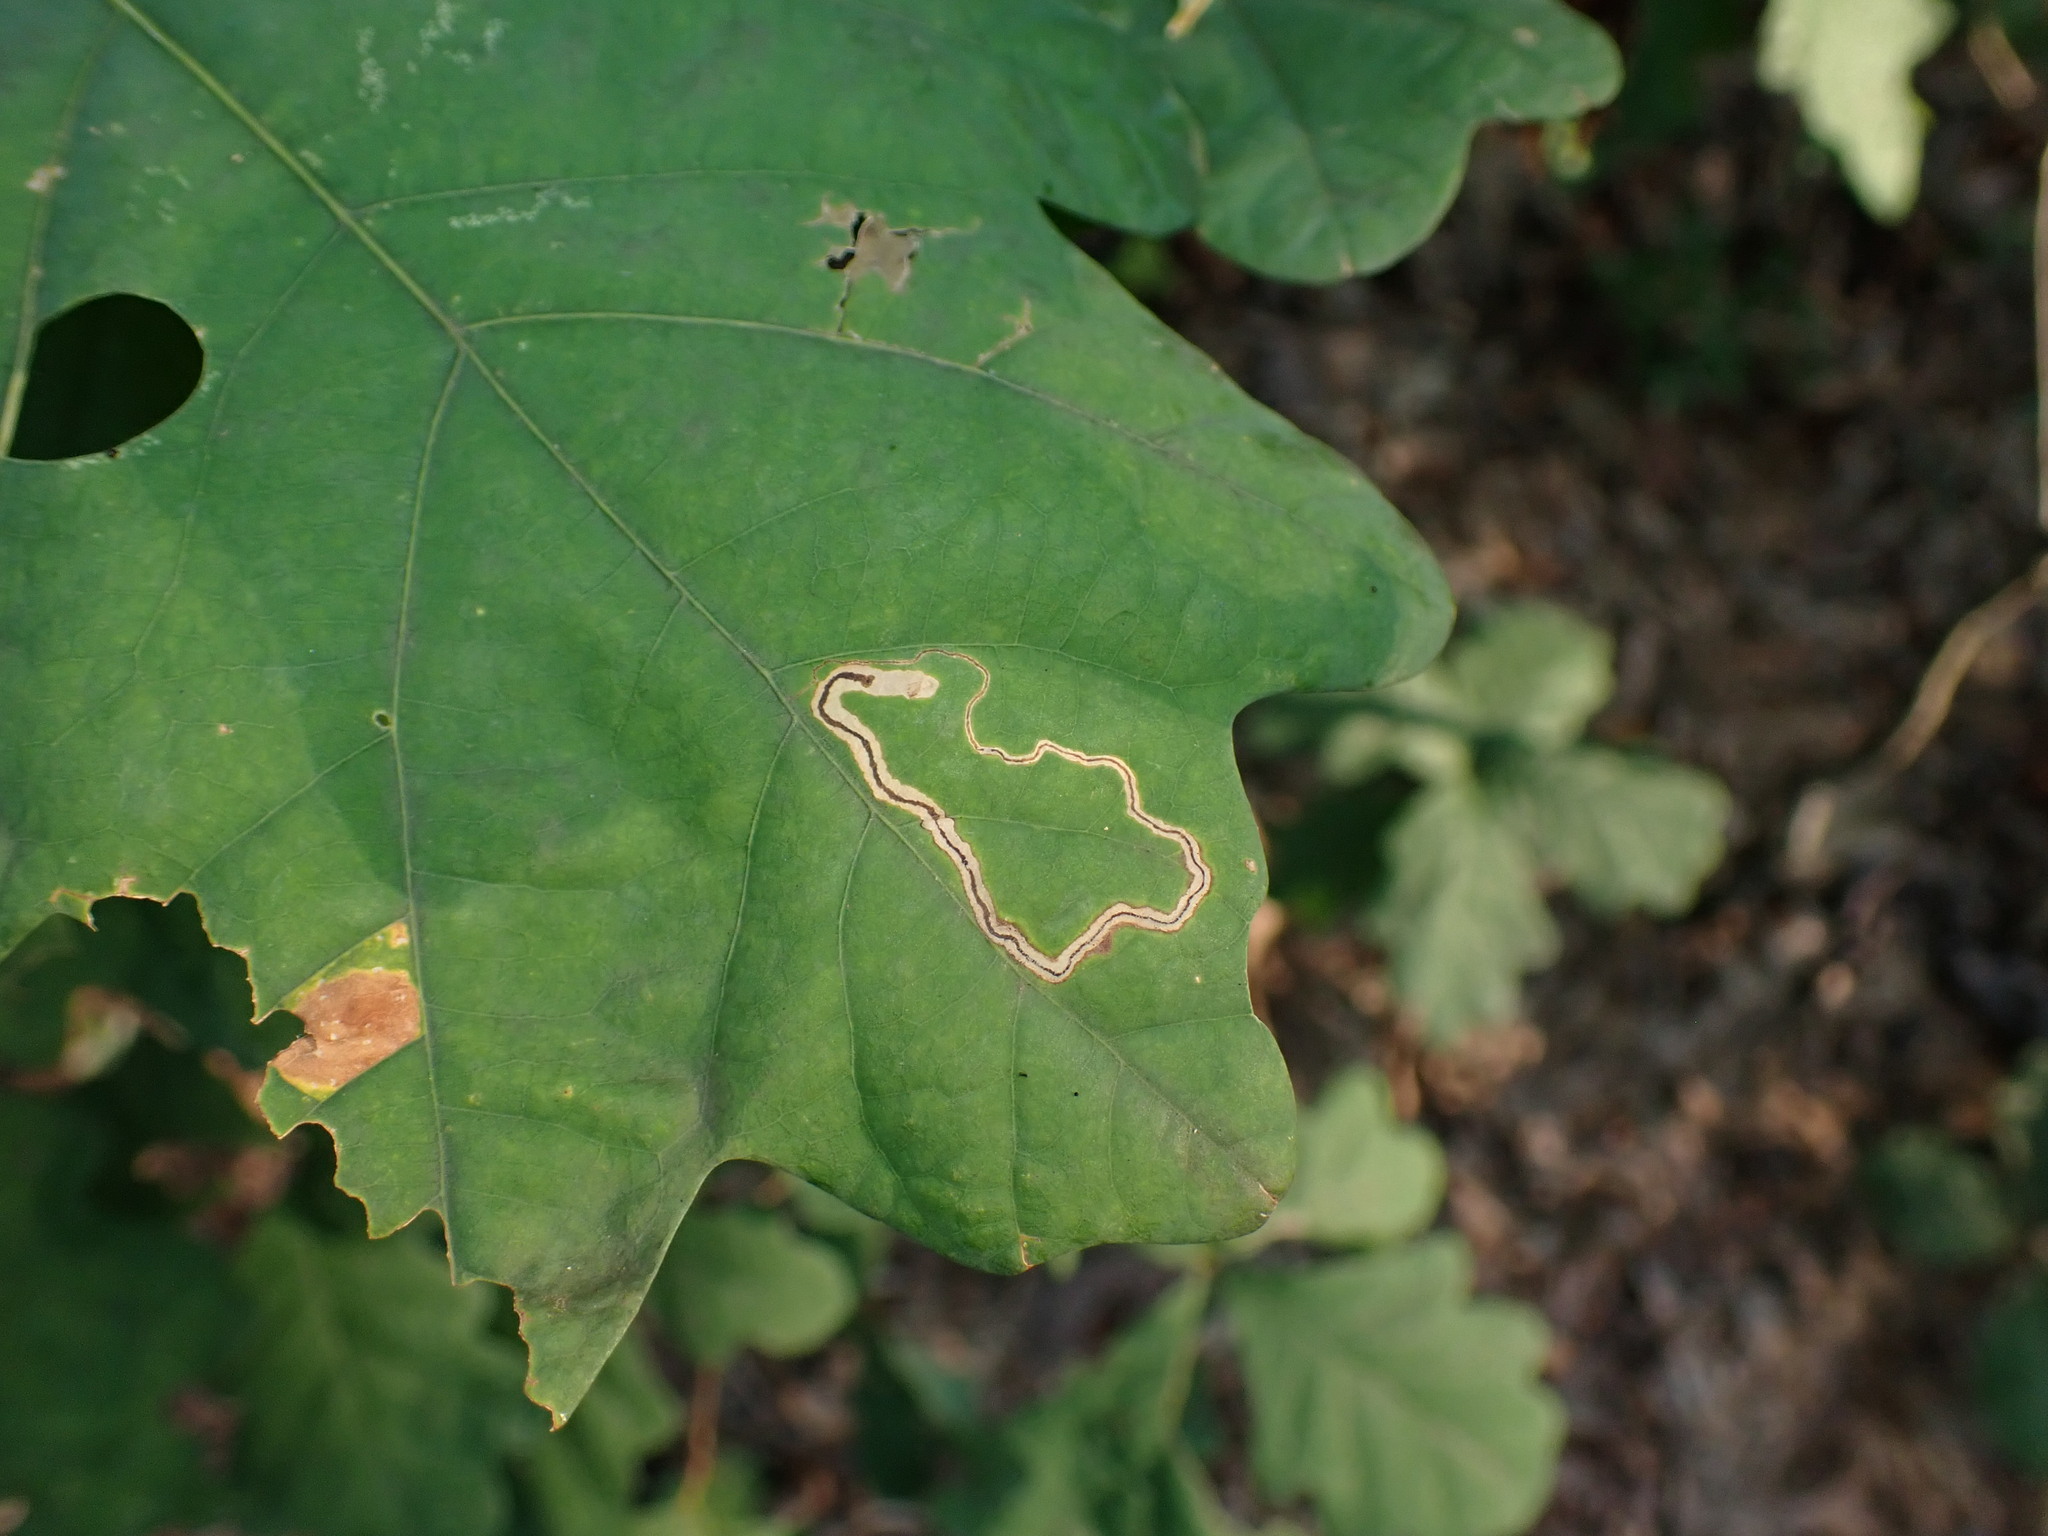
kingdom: Animalia
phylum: Arthropoda
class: Insecta
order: Lepidoptera
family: Nepticulidae
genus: Stigmella
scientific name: Stigmella
